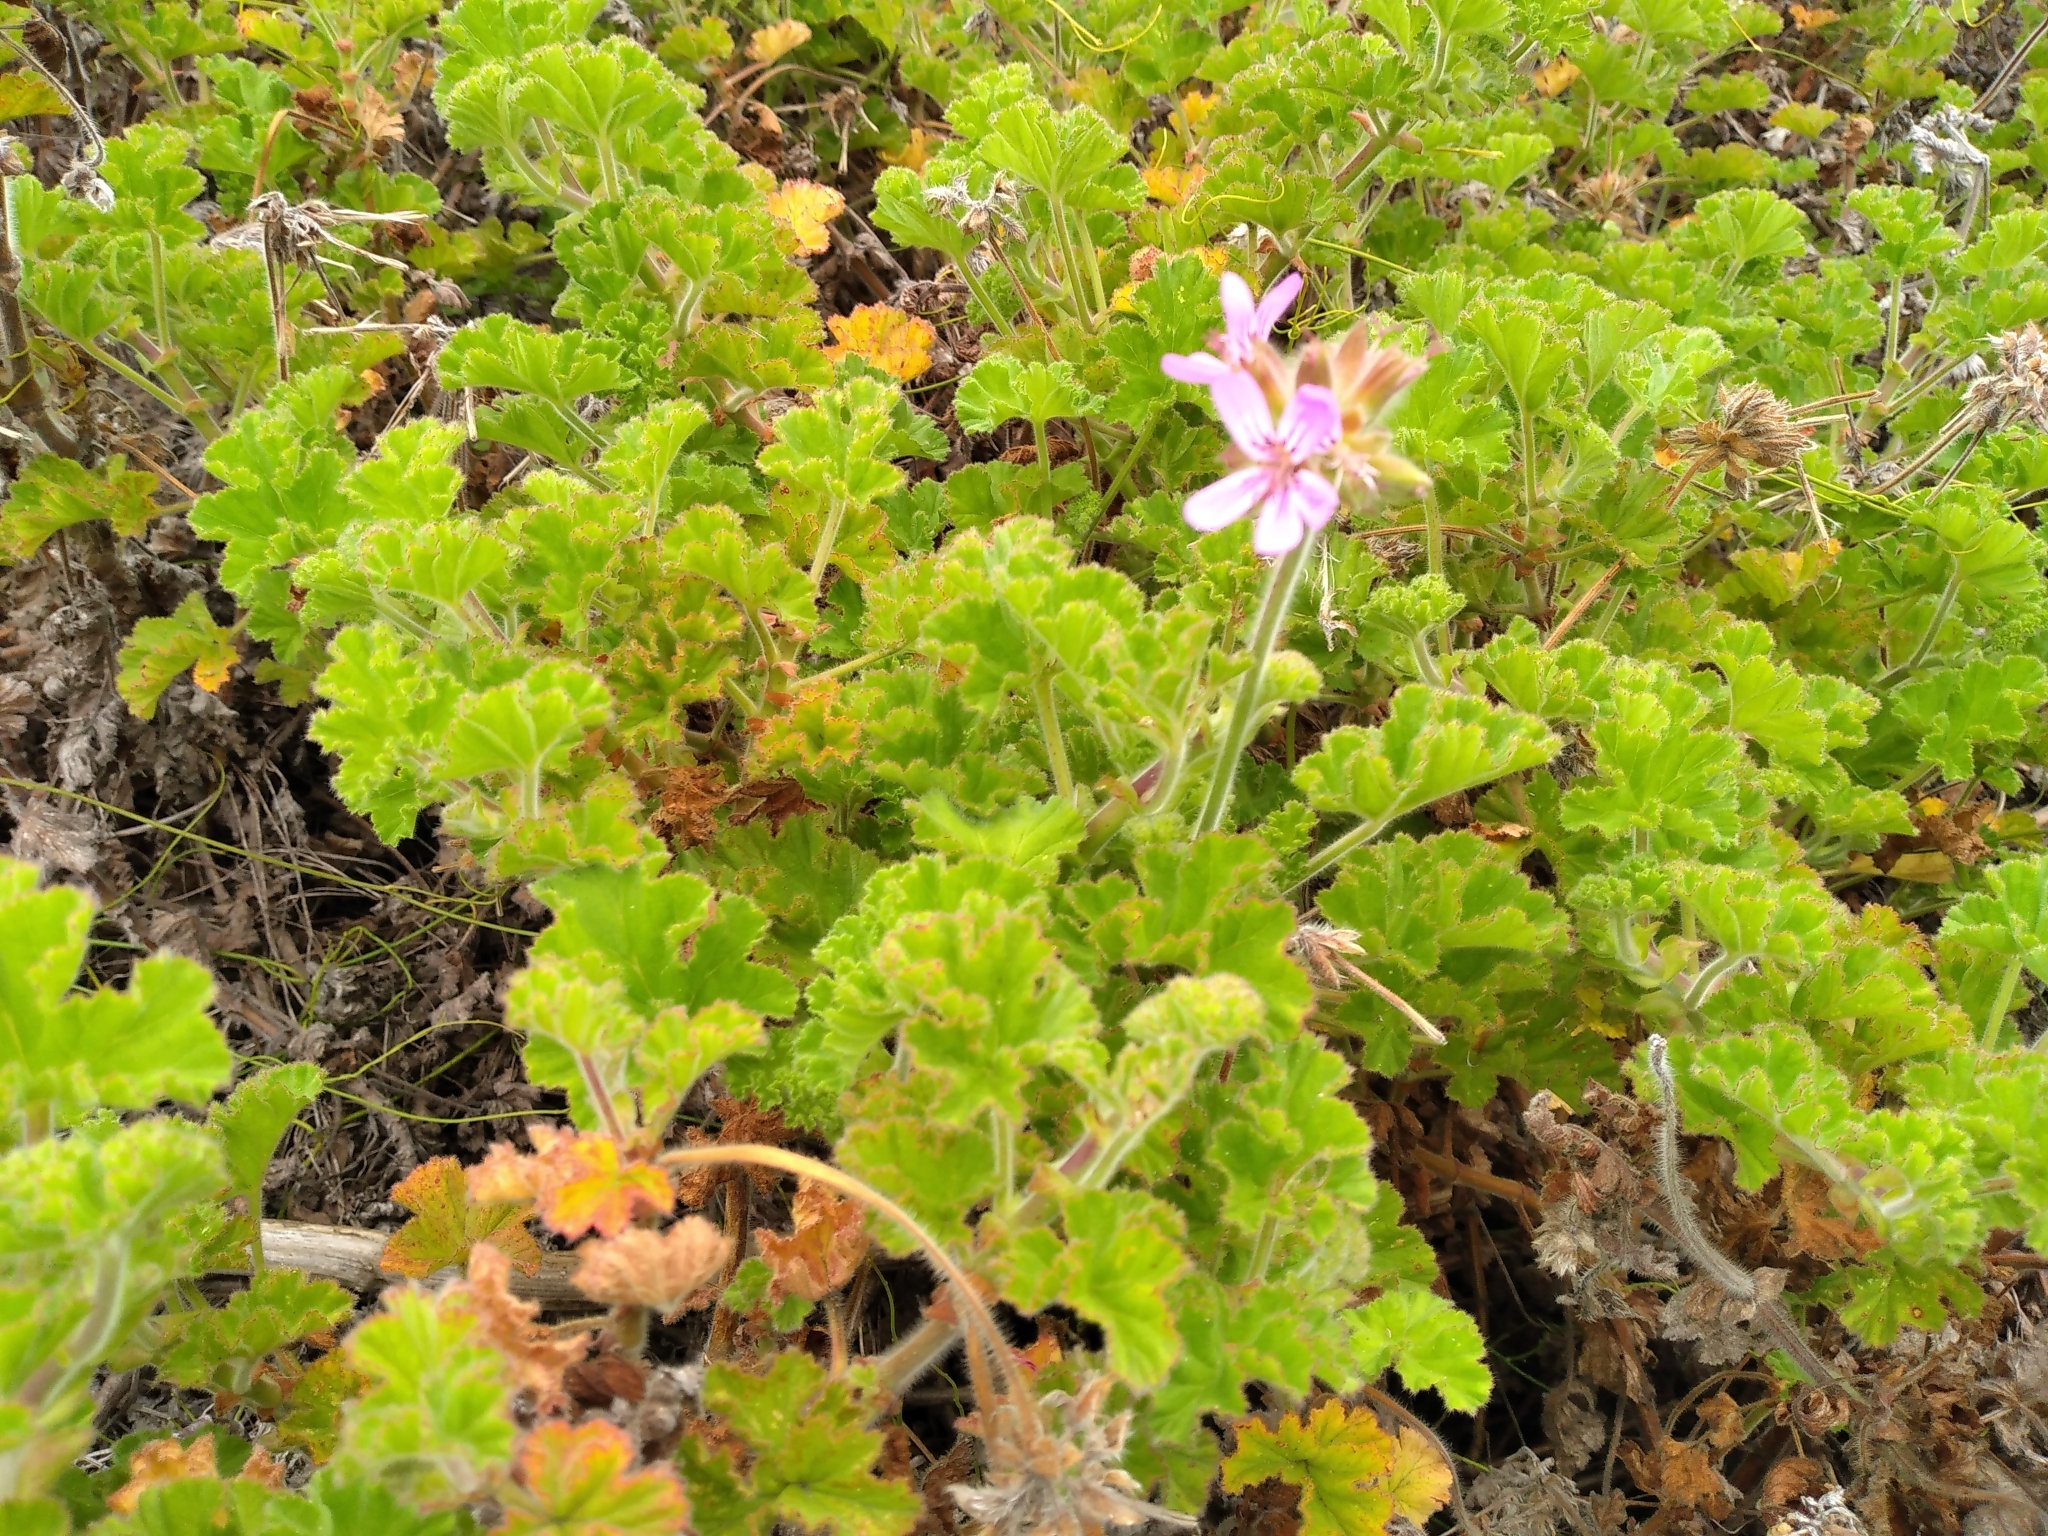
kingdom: Plantae
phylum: Tracheophyta
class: Magnoliopsida
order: Geraniales
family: Geraniaceae
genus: Pelargonium
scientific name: Pelargonium capitatum
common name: Rose scented geranium
